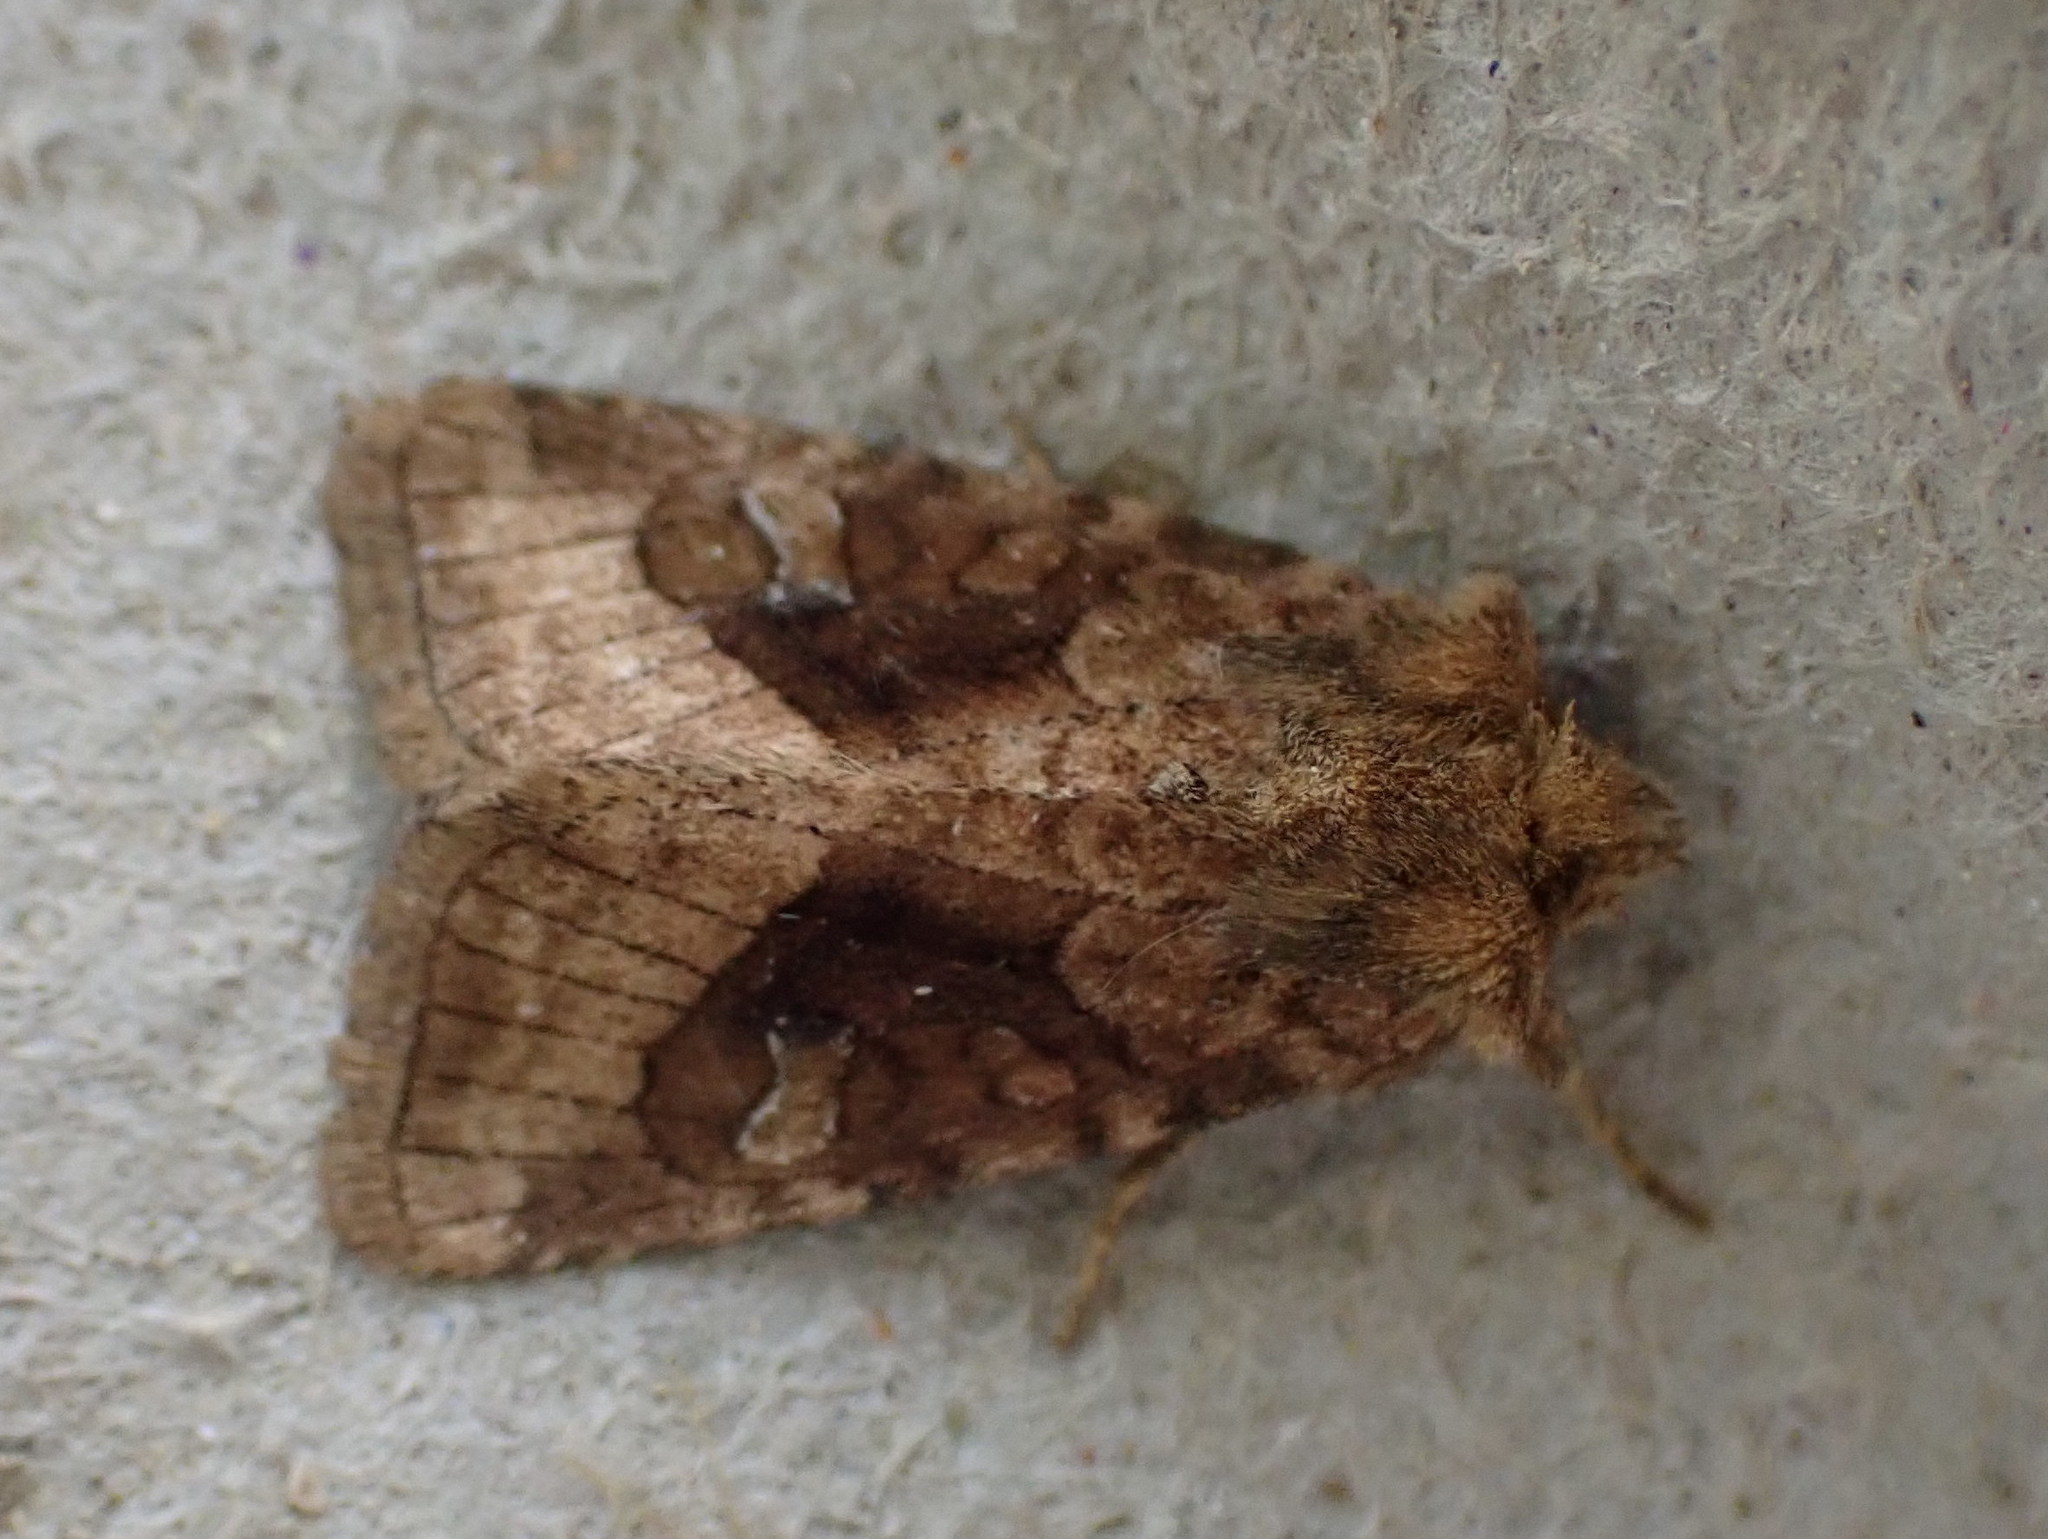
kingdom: Animalia
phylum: Arthropoda
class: Insecta
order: Lepidoptera
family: Noctuidae
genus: Lacinipolia
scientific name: Lacinipolia lorea
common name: Bridled arches moth
